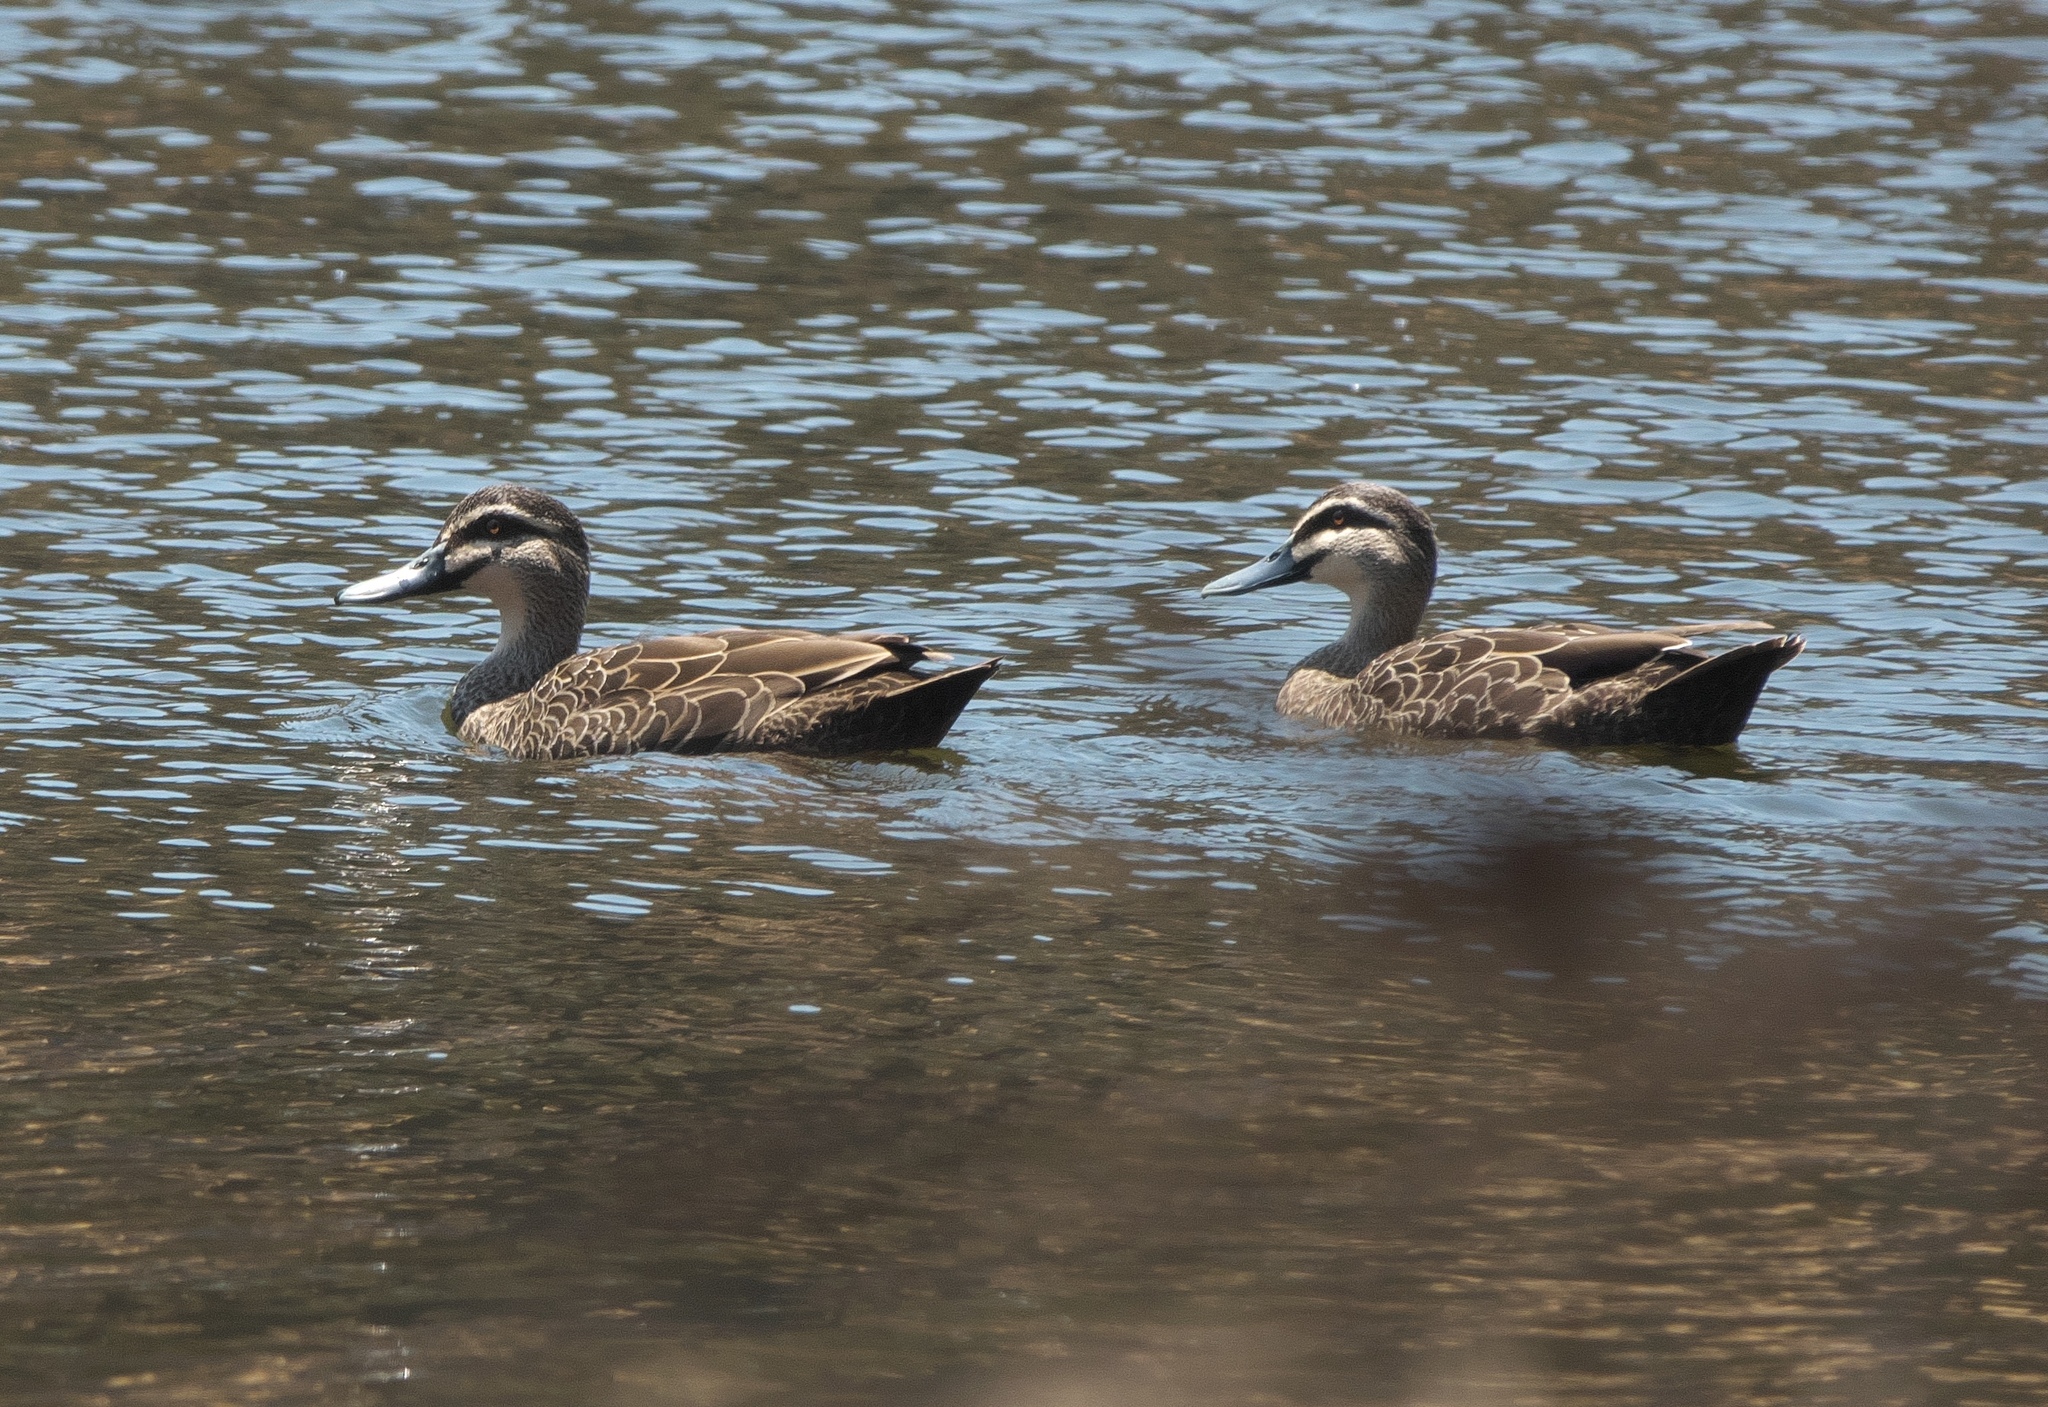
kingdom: Animalia
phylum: Chordata
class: Aves
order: Anseriformes
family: Anatidae
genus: Anas
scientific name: Anas superciliosa
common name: Pacific black duck
